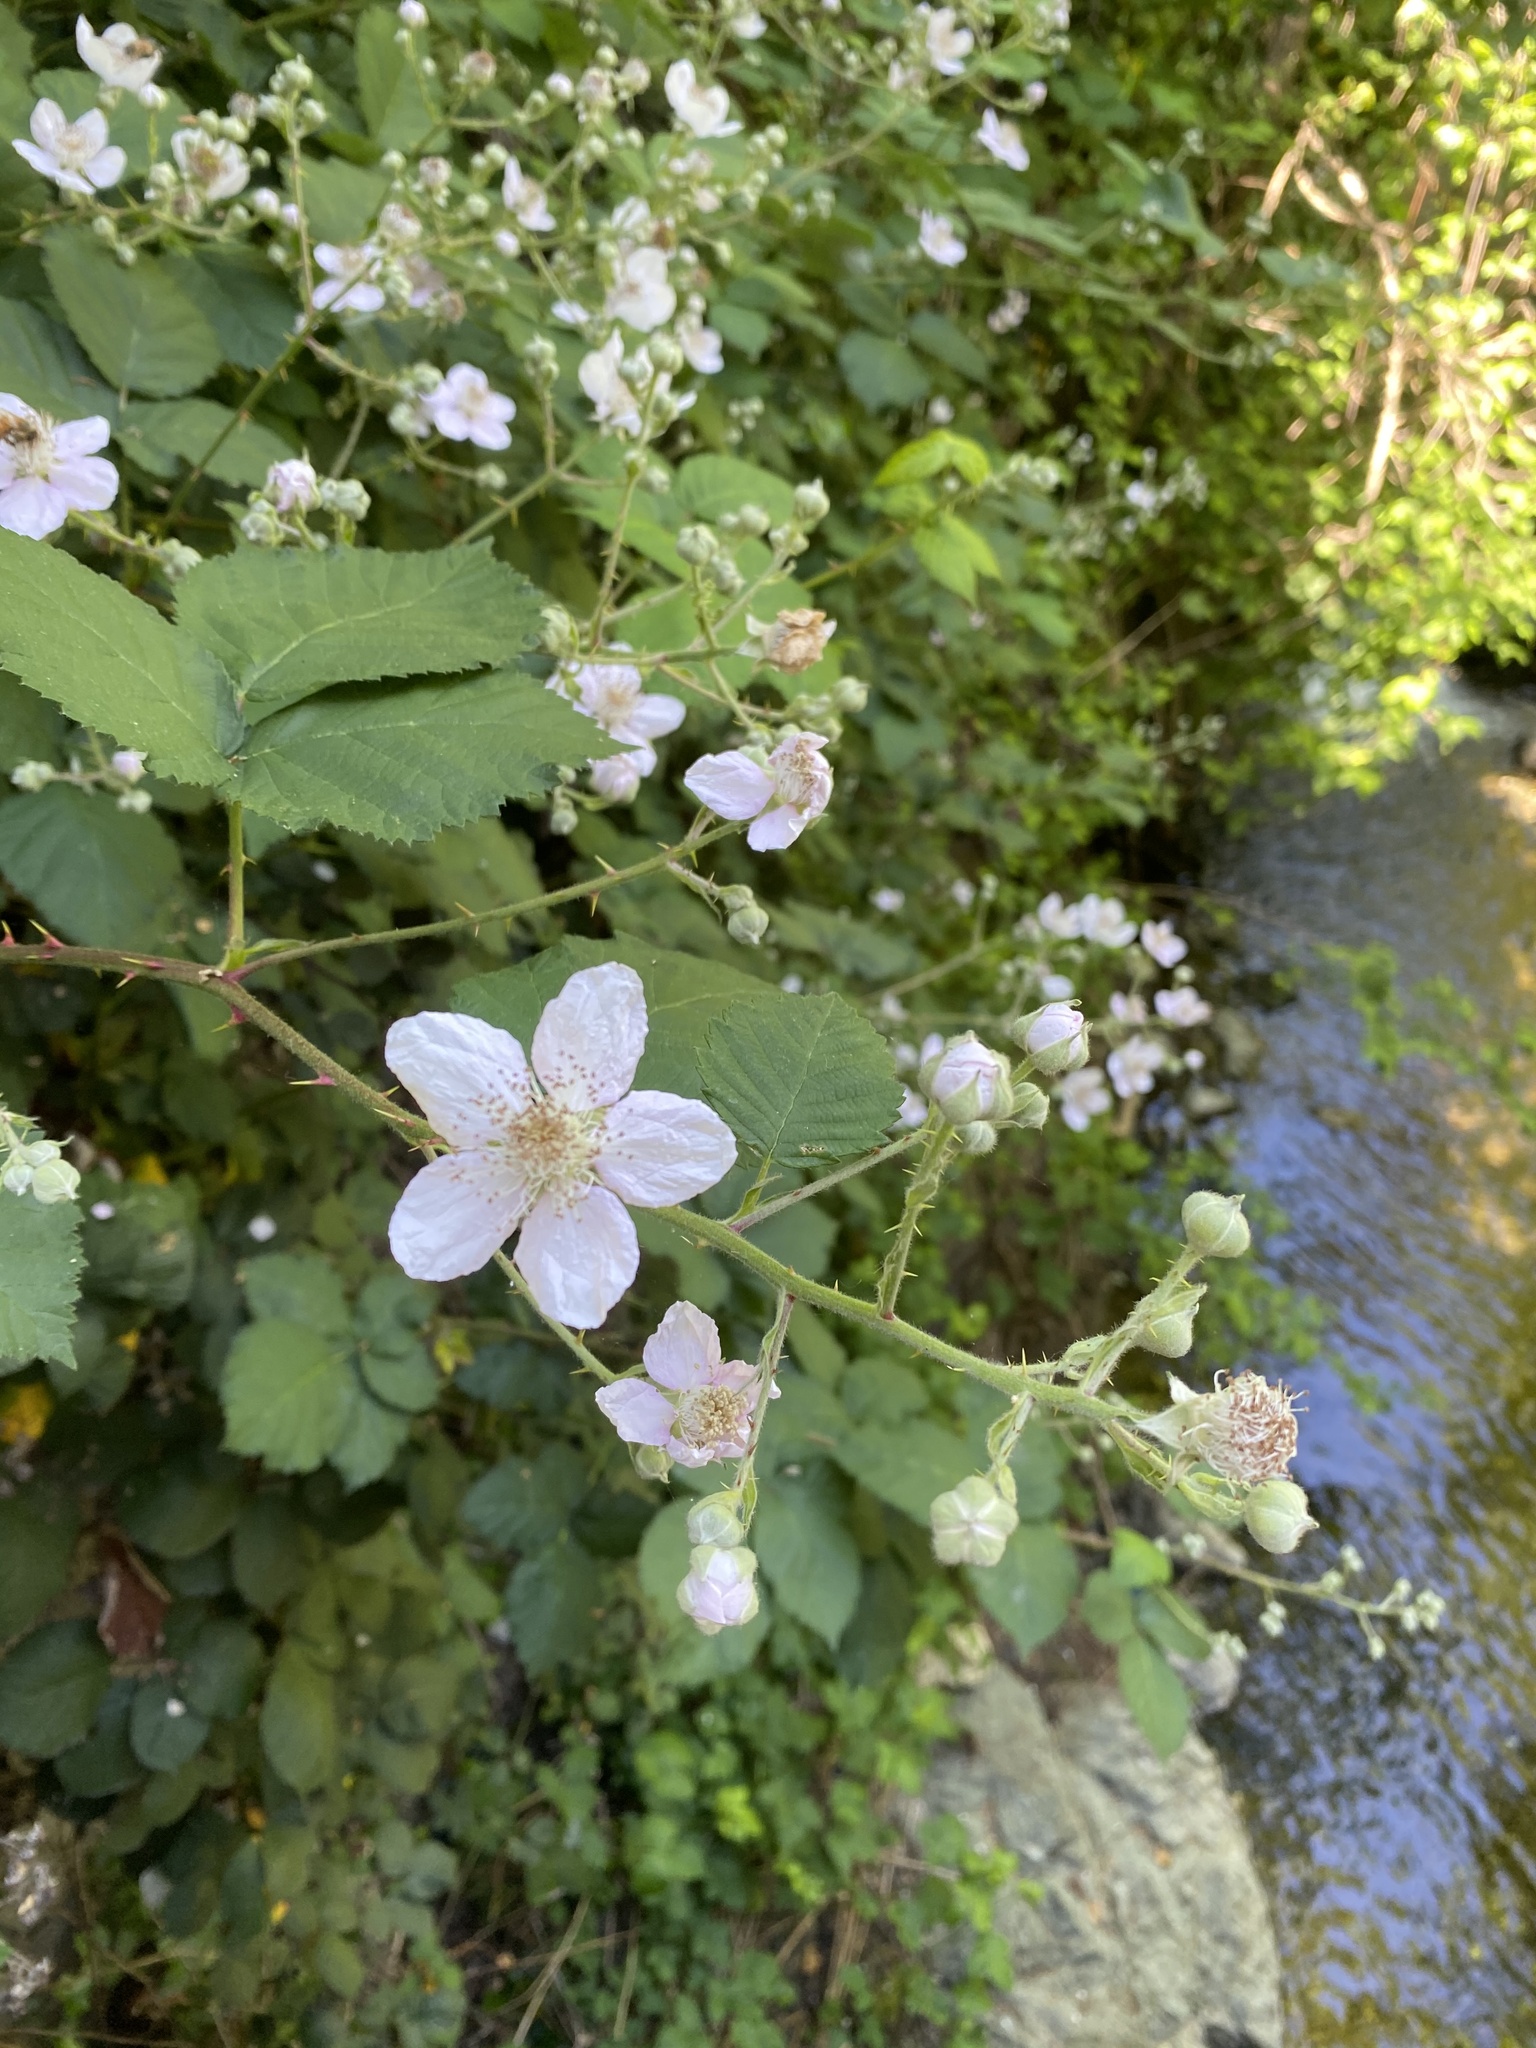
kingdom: Plantae
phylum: Tracheophyta
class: Magnoliopsida
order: Rosales
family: Rosaceae
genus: Rubus
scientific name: Rubus armeniacus
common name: Himalayan blackberry
